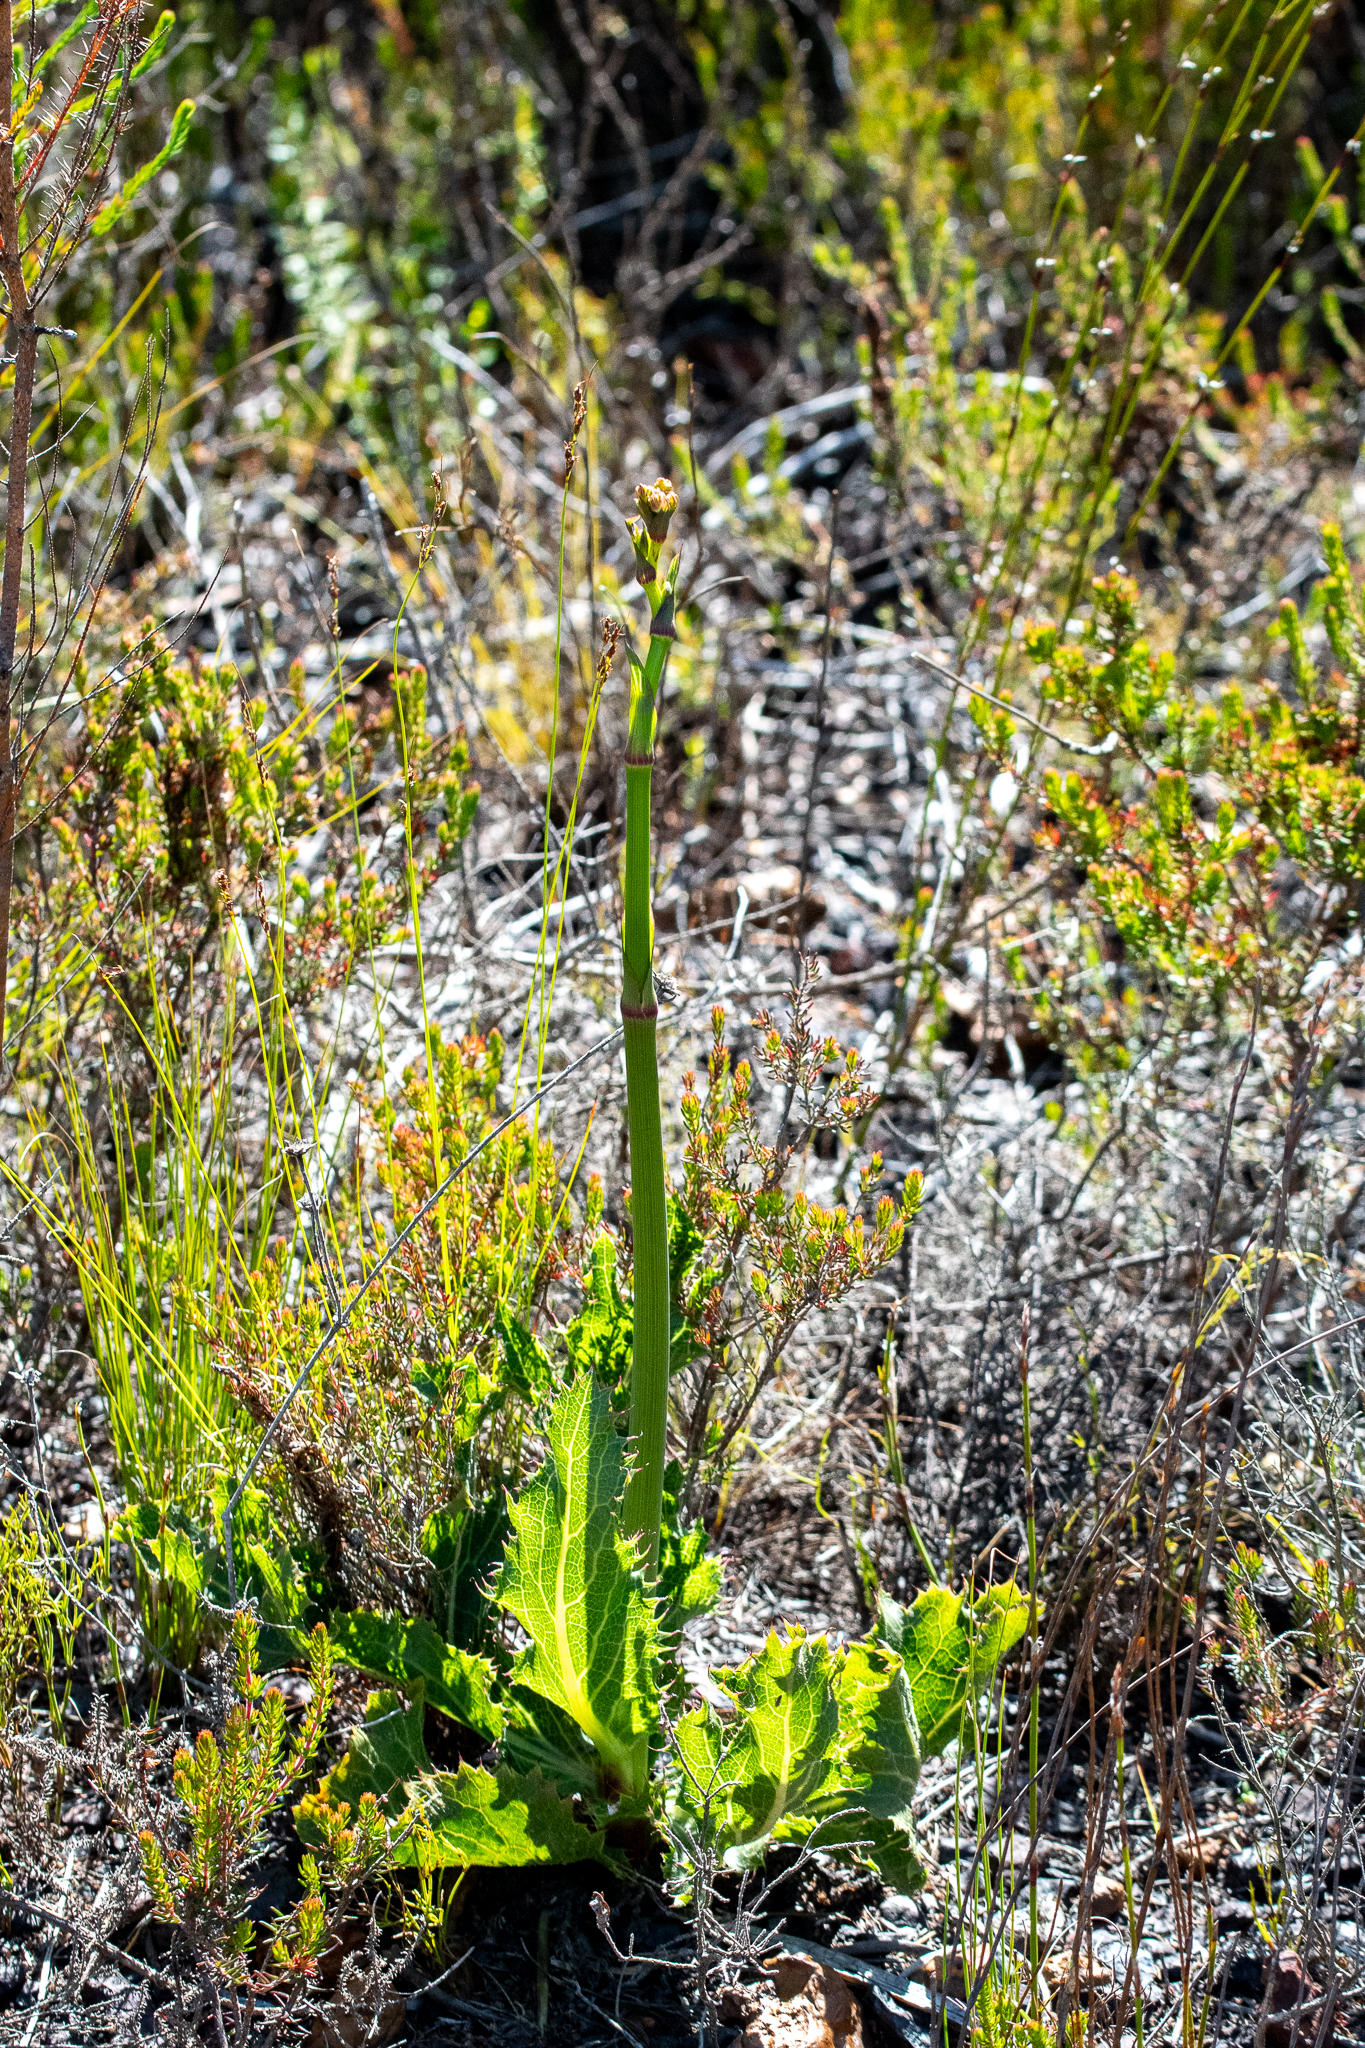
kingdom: Plantae
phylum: Tracheophyta
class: Magnoliopsida
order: Apiales
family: Apiaceae
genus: Lichtensteinia
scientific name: Lichtensteinia lacera
